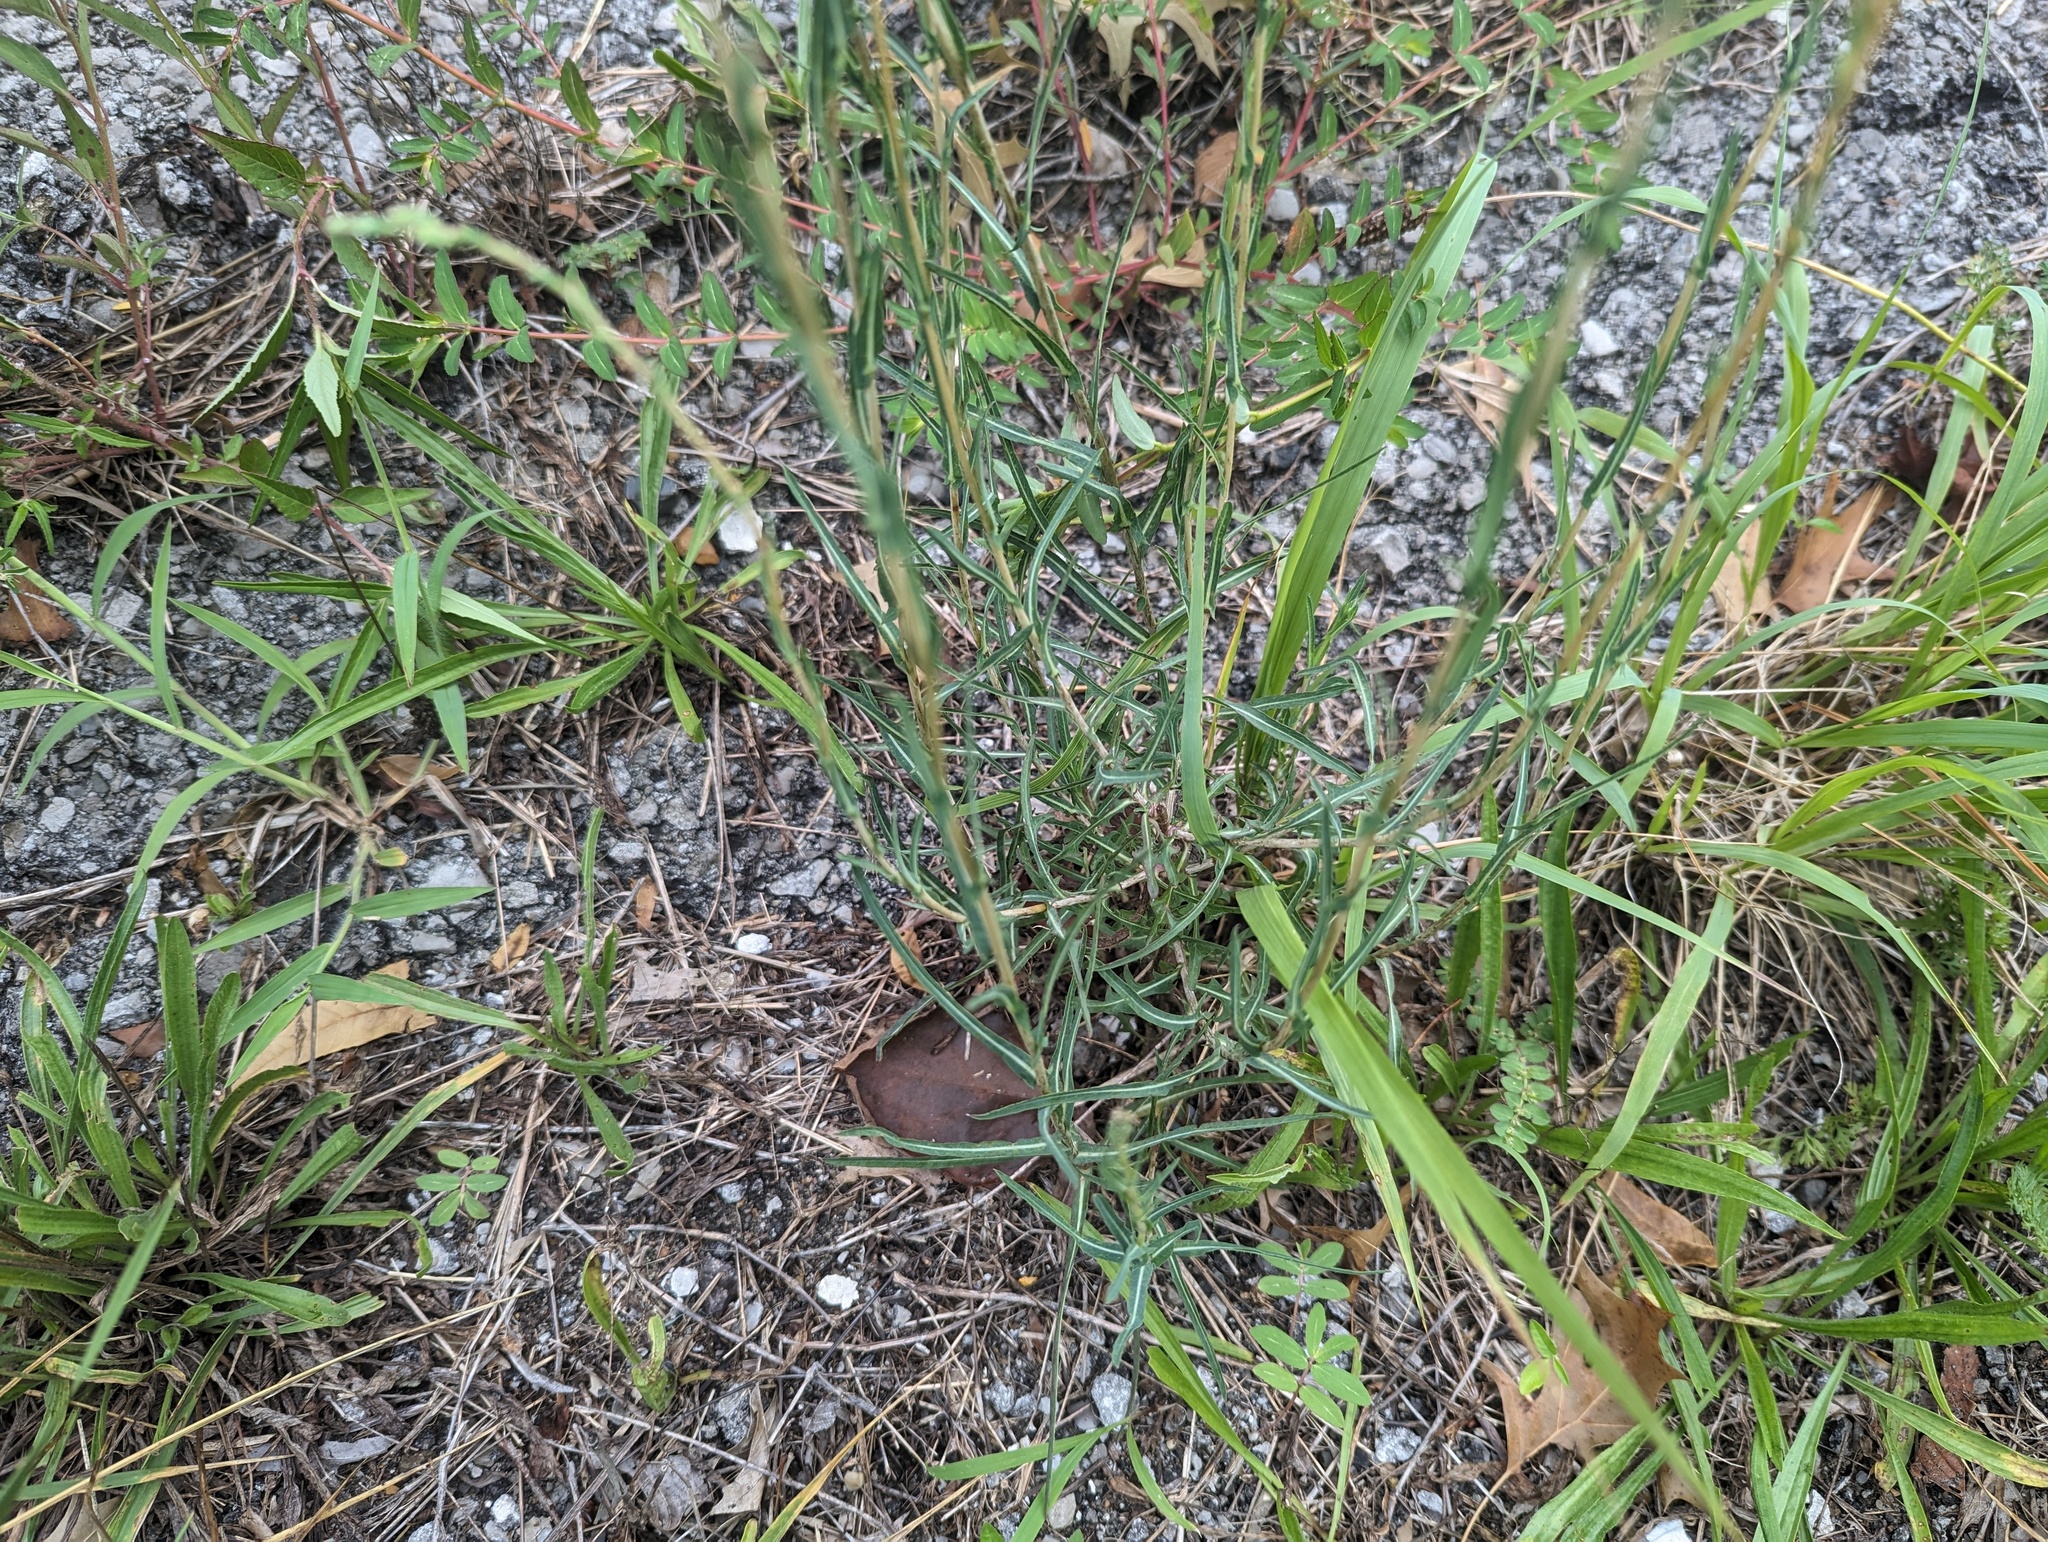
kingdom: Plantae
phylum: Tracheophyta
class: Magnoliopsida
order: Asterales
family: Asteraceae
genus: Lactuca
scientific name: Lactuca saligna
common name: Wild lettuce
